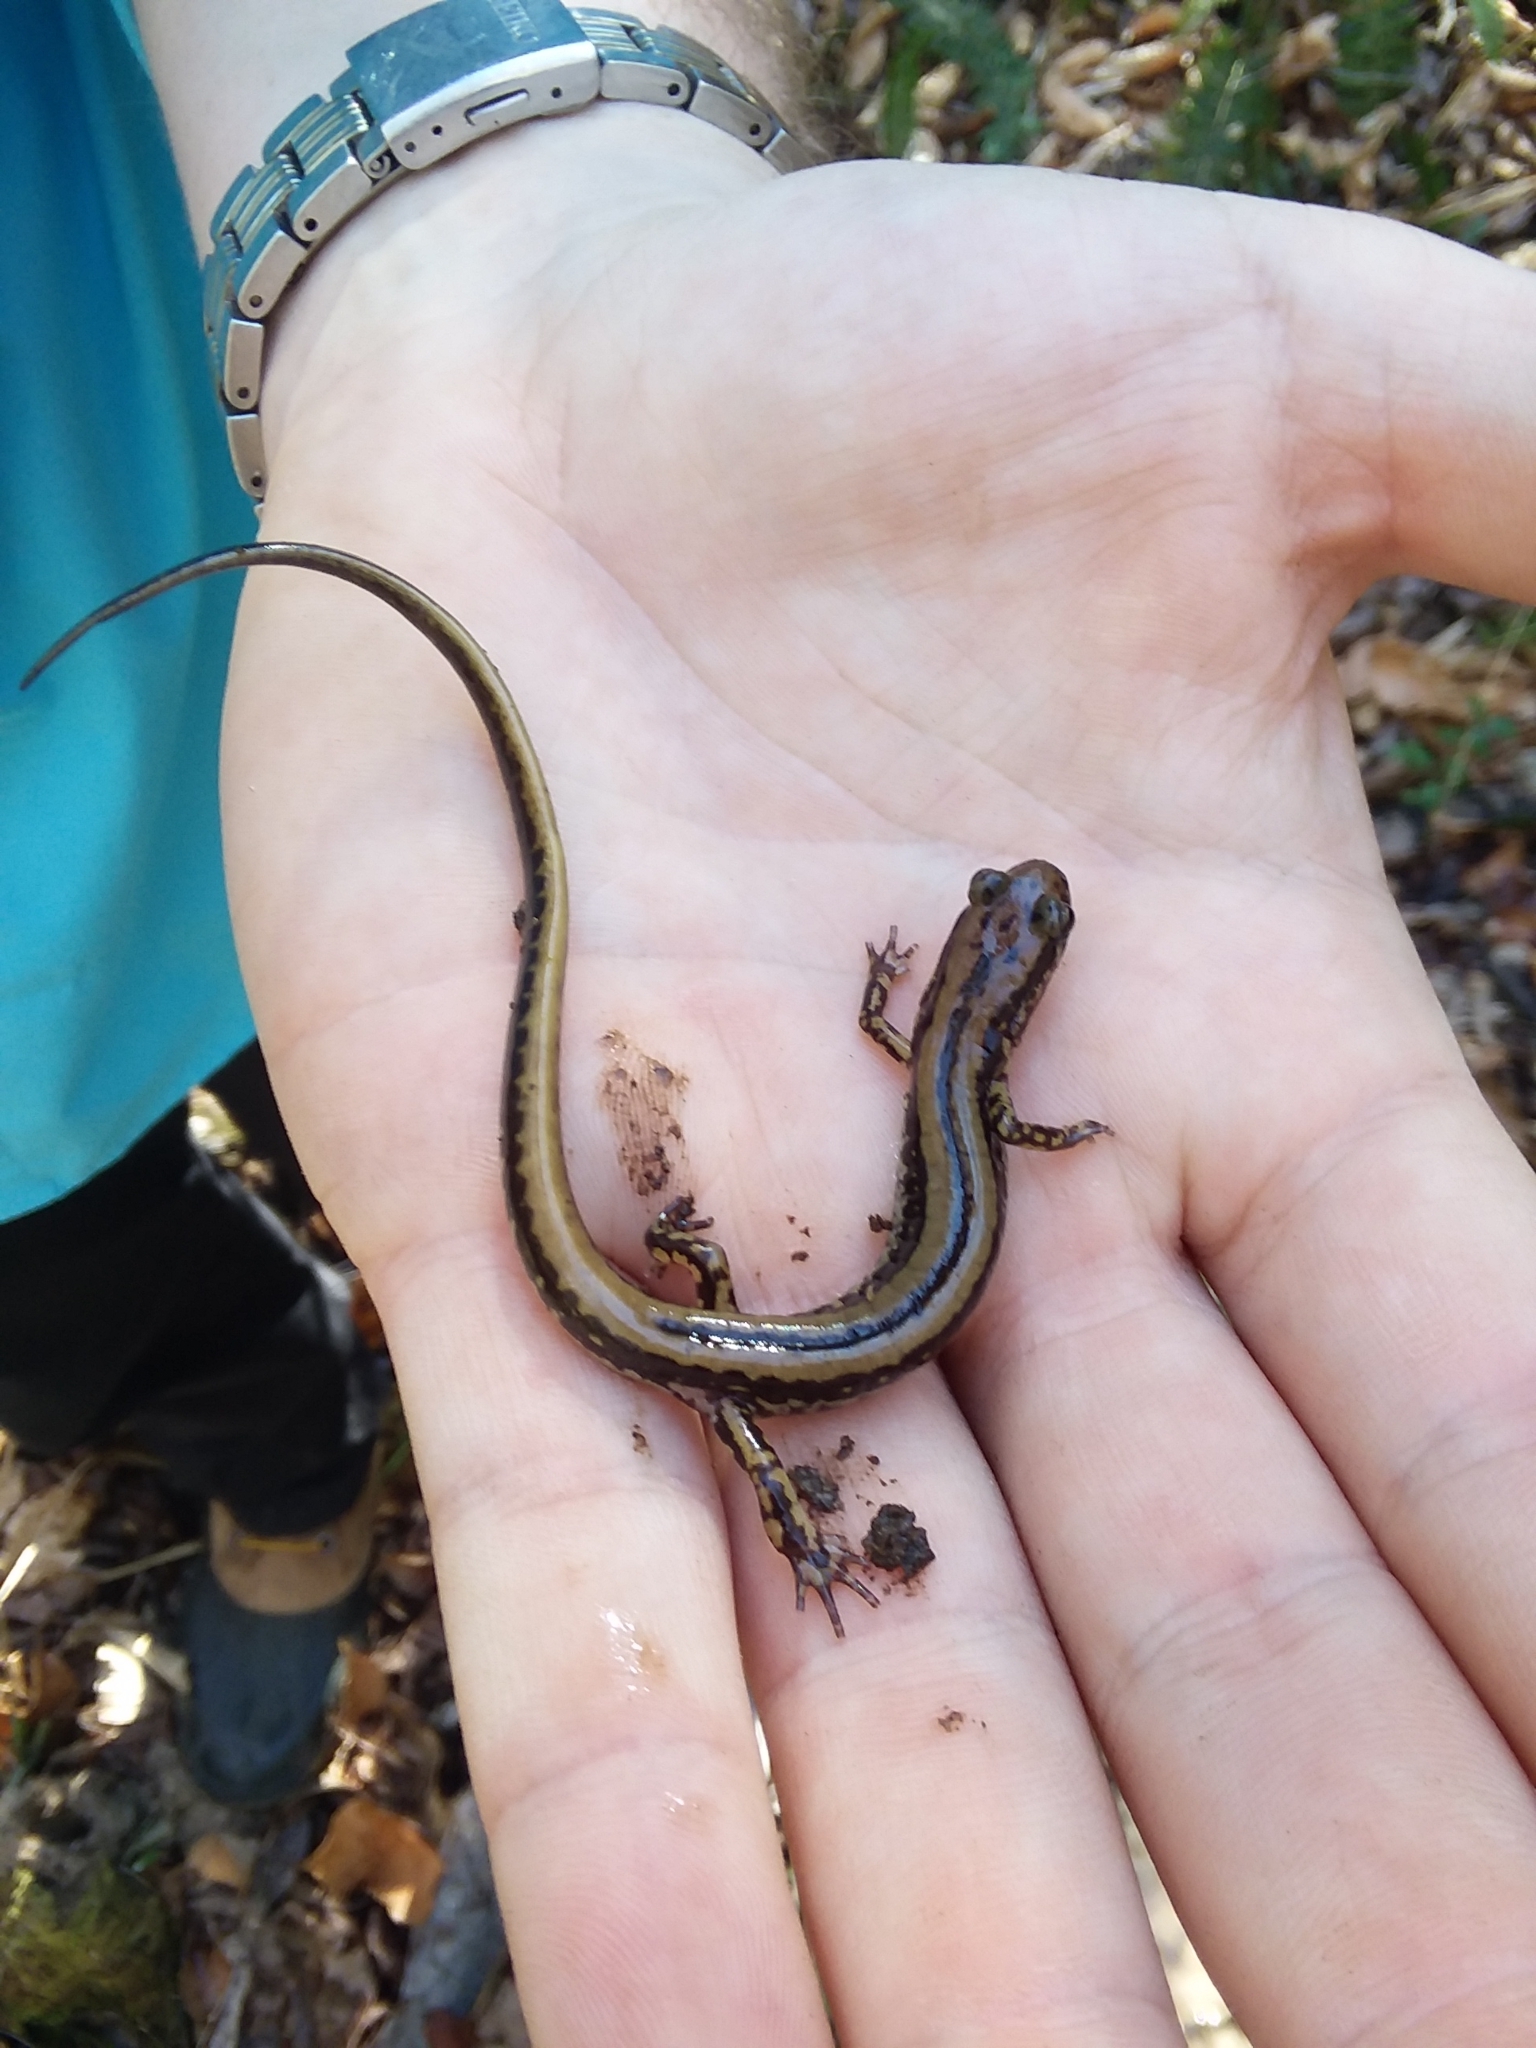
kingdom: Animalia
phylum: Chordata
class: Amphibia
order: Caudata
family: Plethodontidae
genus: Eurycea
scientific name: Eurycea guttolineata
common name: Three-lined salamander
